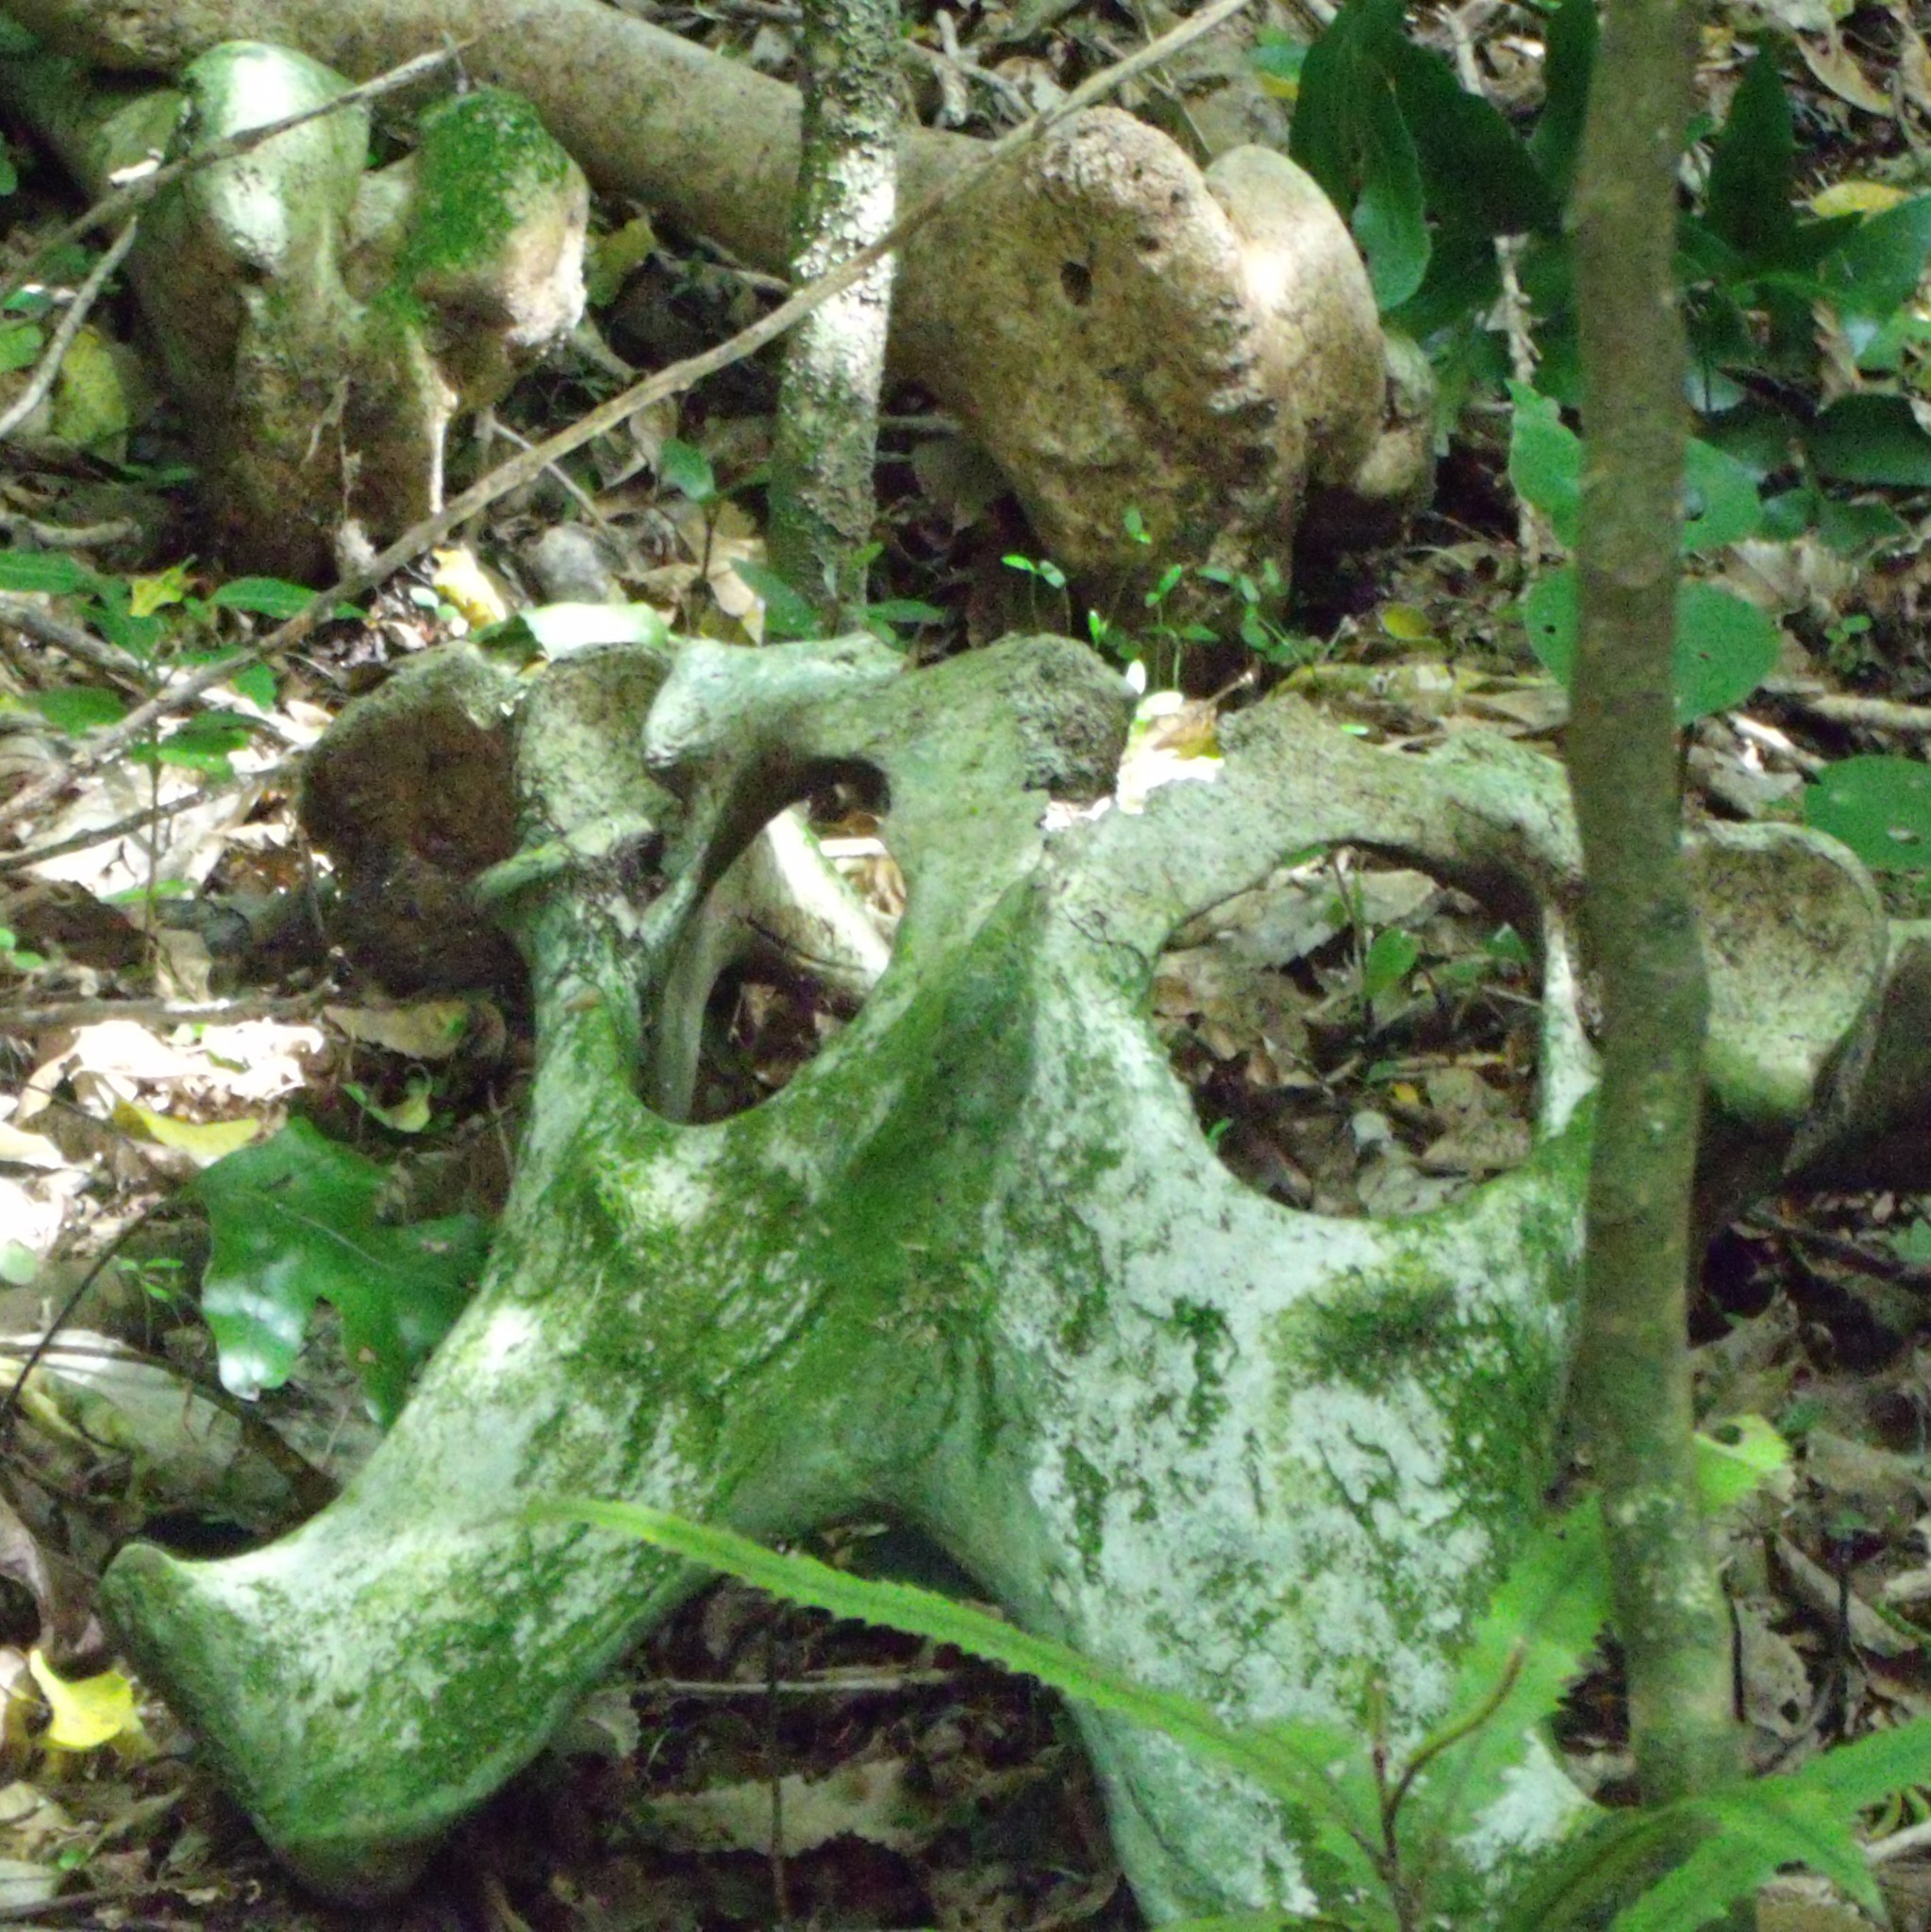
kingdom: Animalia
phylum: Chordata
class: Mammalia
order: Artiodactyla
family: Bovidae
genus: Bos
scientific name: Bos taurus
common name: Domesticated cattle
